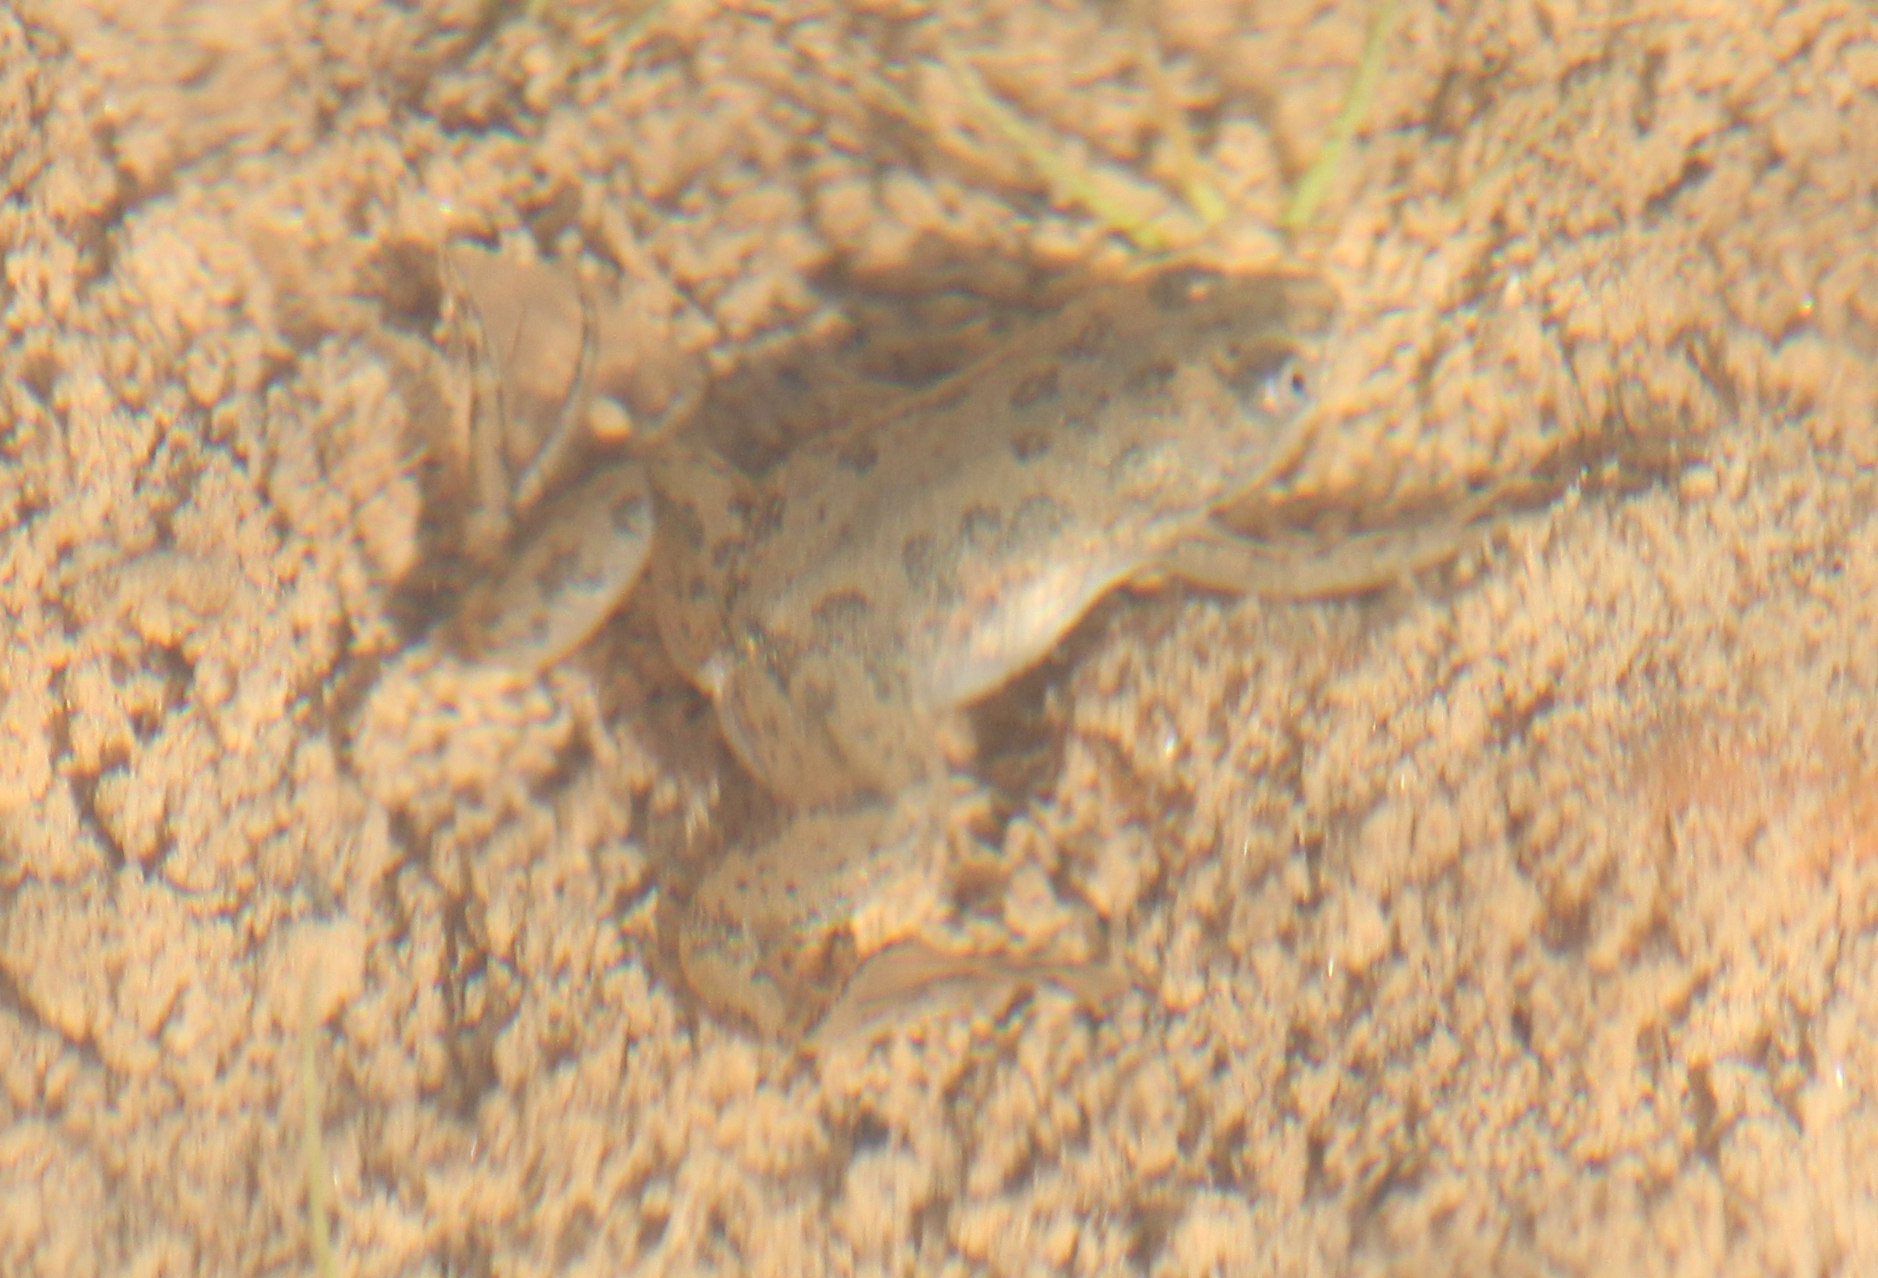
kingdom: Animalia
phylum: Chordata
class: Amphibia
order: Anura
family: Pipidae
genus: Xenopus
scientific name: Xenopus laevis
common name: African clawed frog
